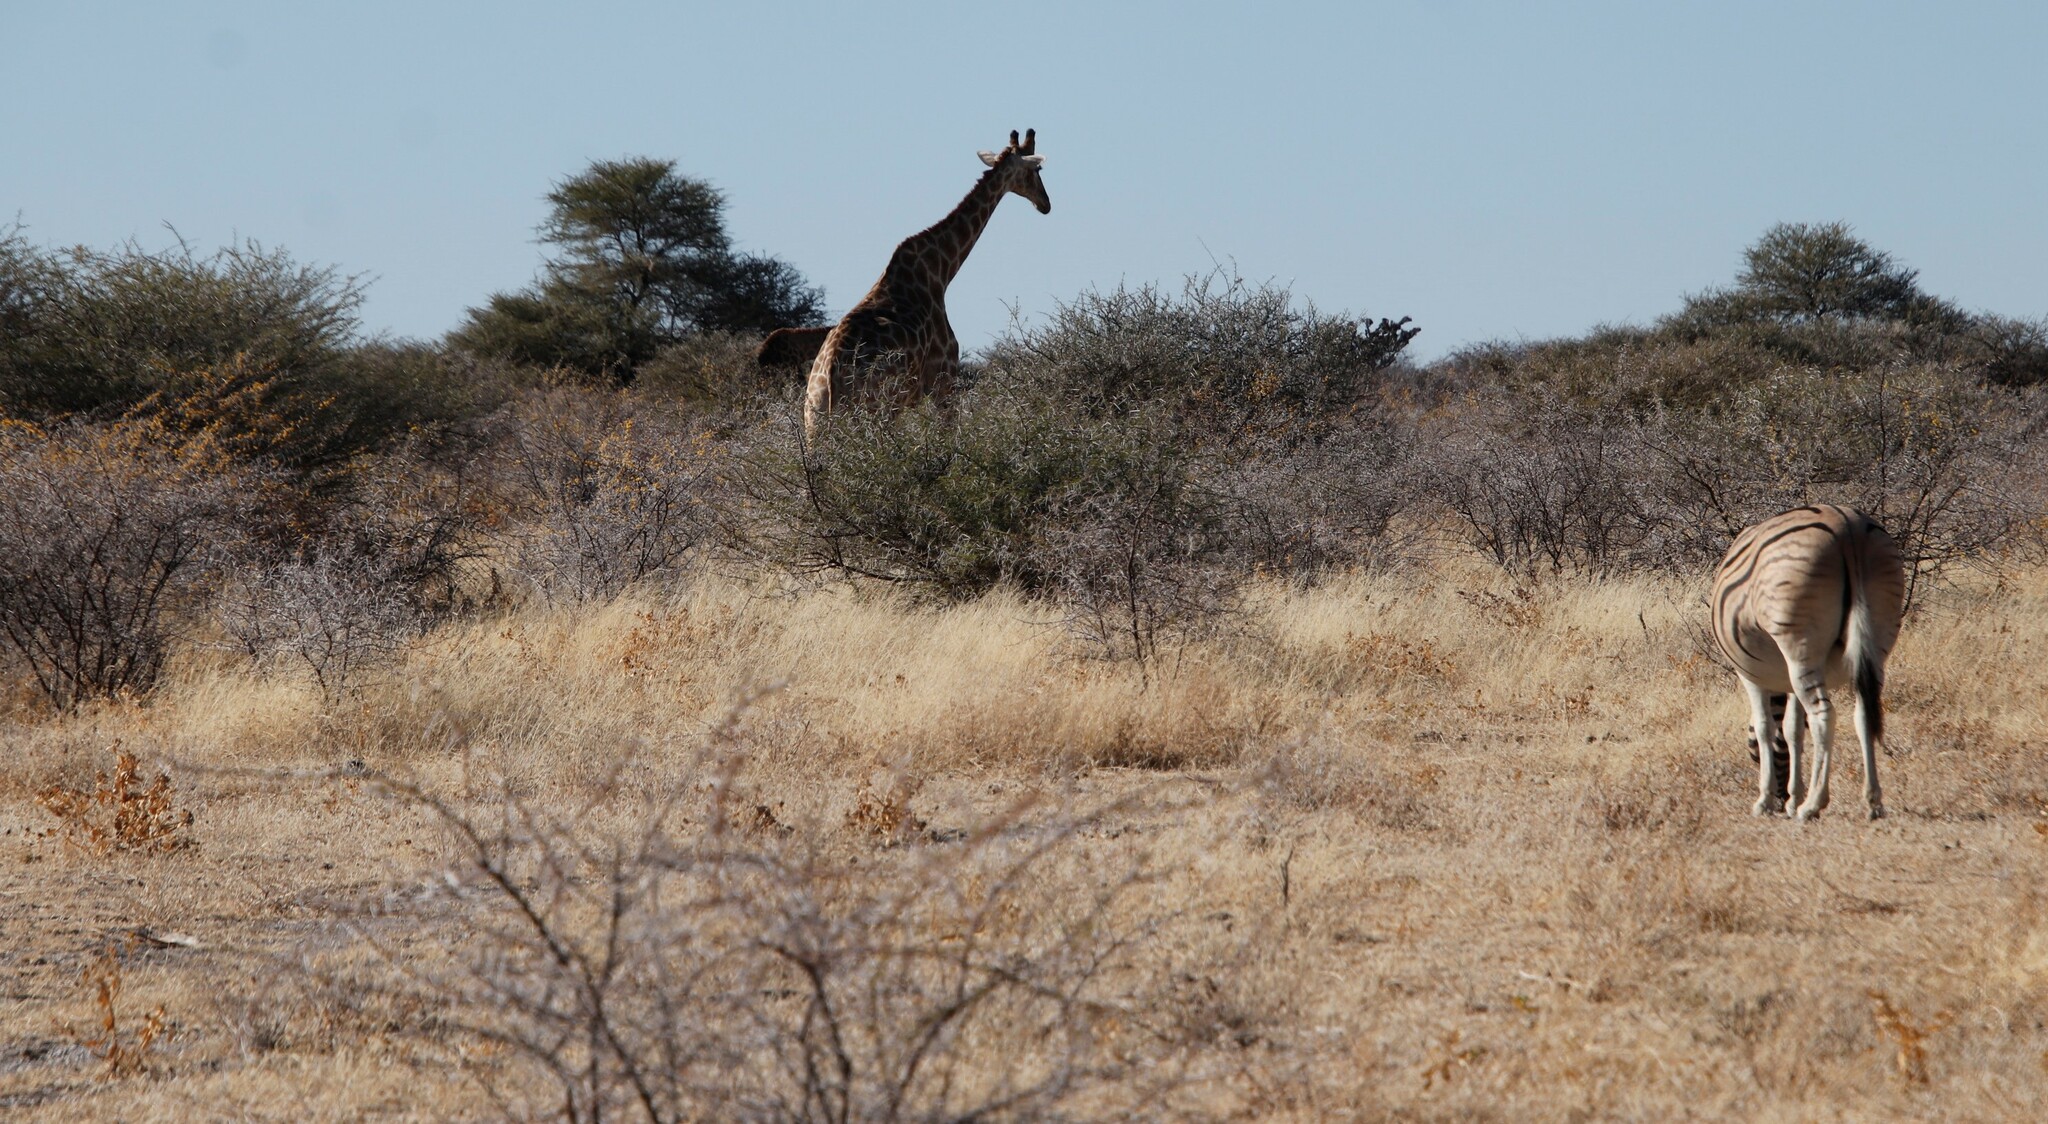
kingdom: Animalia
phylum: Chordata
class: Mammalia
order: Perissodactyla
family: Equidae
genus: Equus
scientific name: Equus quagga
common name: Plains zebra
